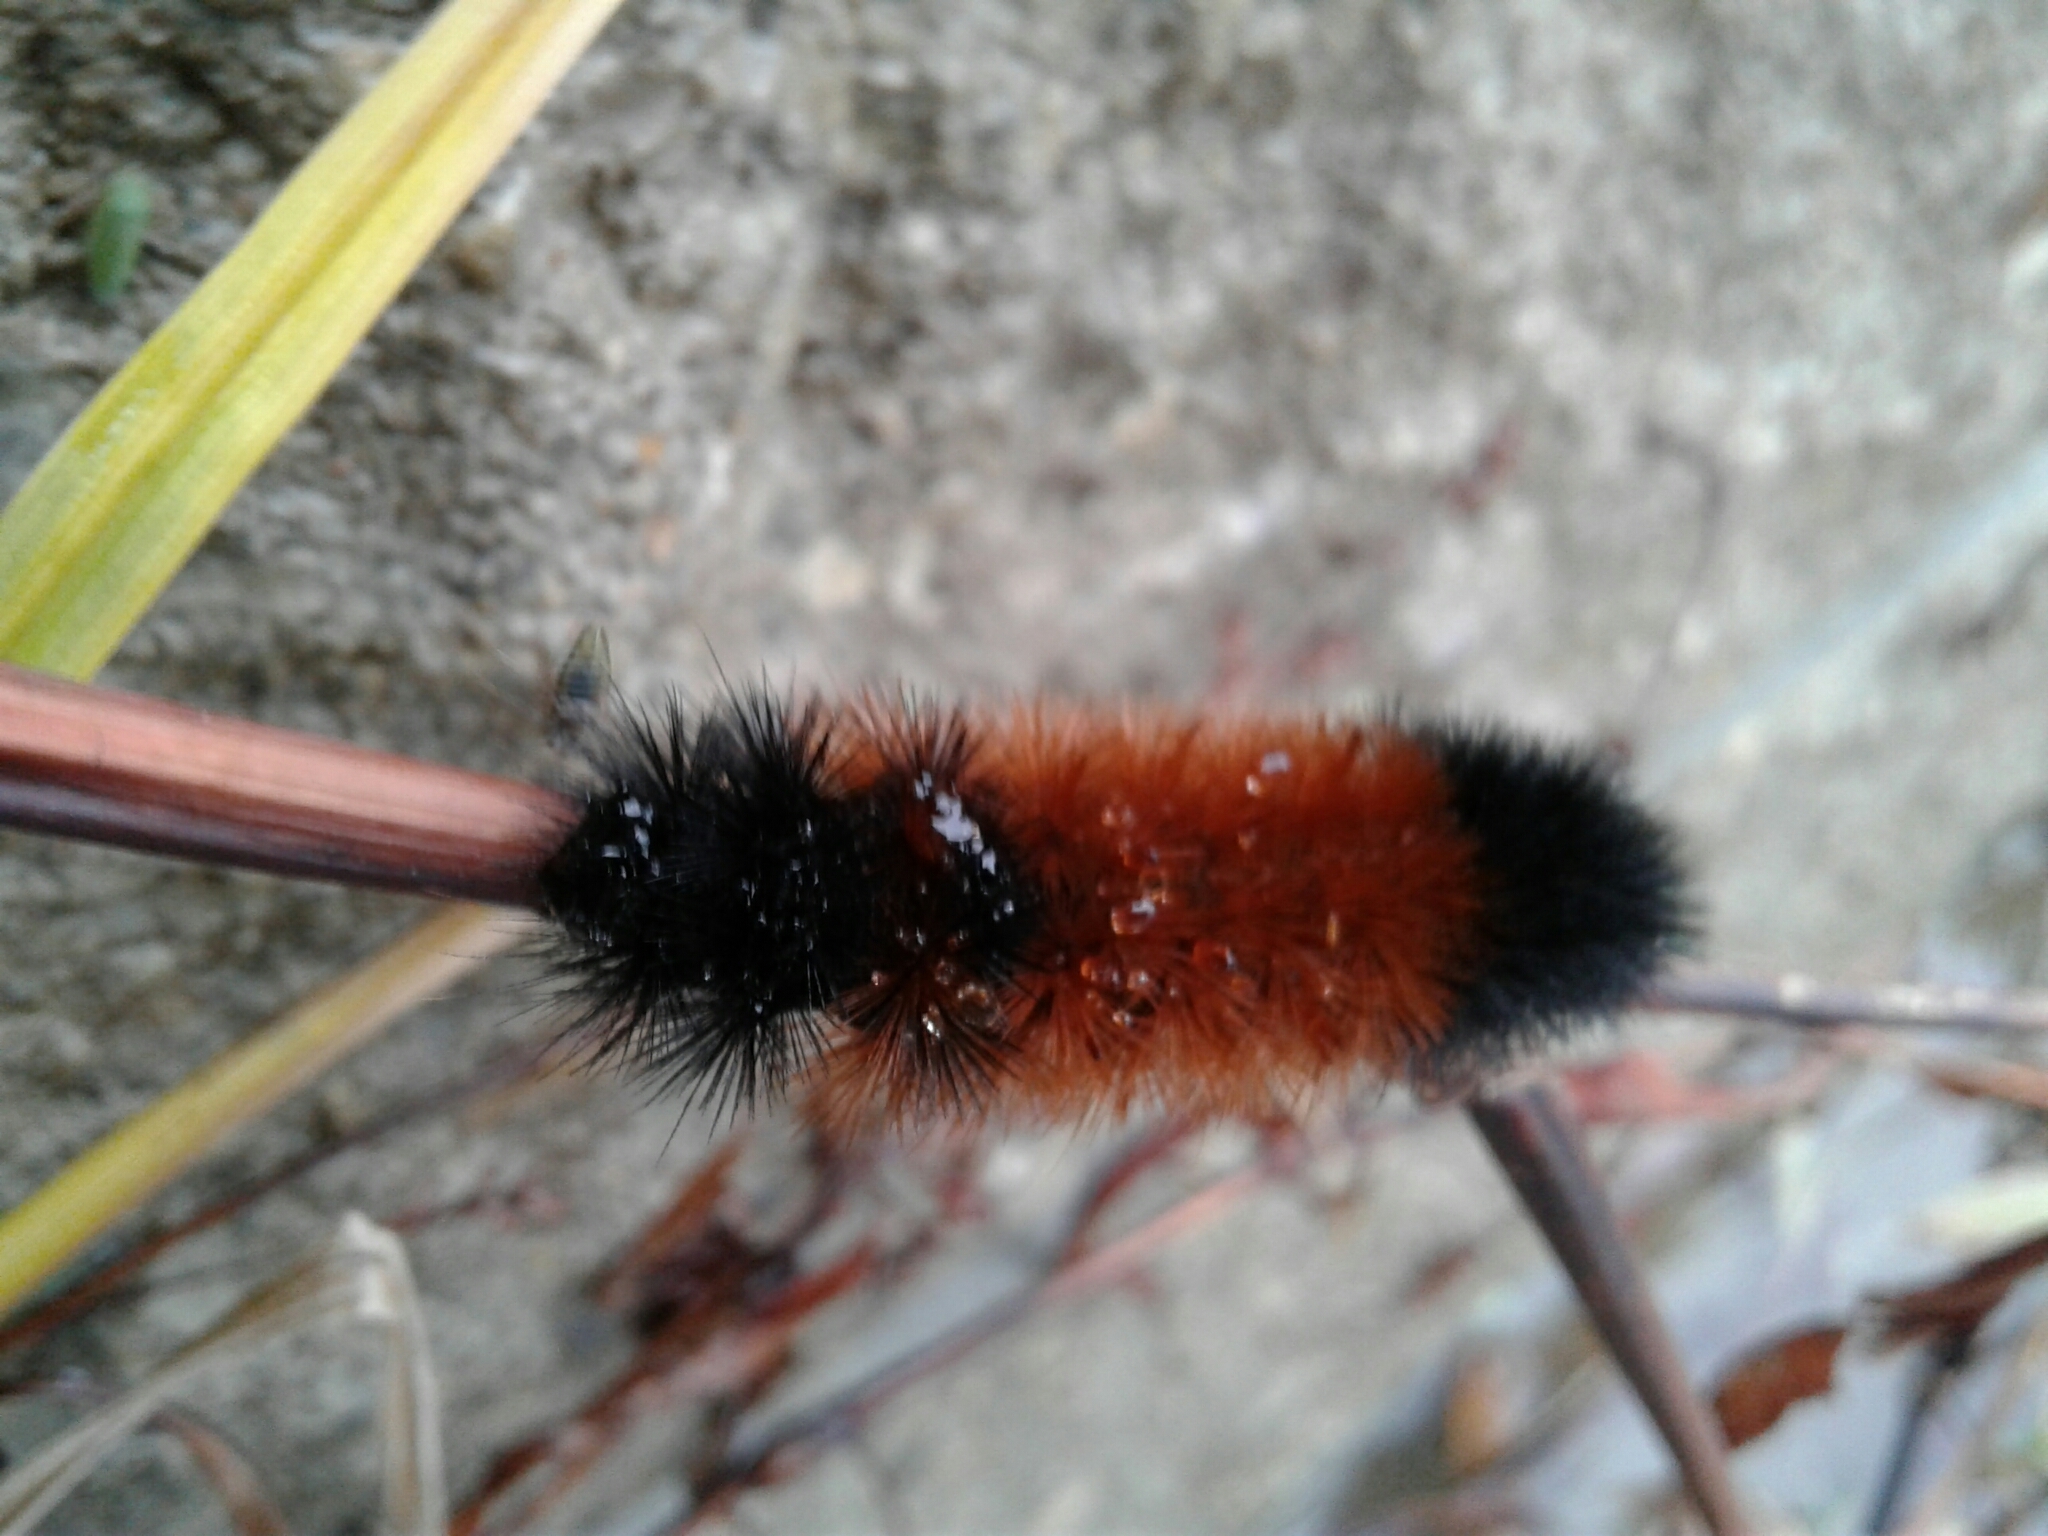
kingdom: Animalia
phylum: Arthropoda
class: Insecta
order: Lepidoptera
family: Erebidae
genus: Pyrrharctia
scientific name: Pyrrharctia isabella
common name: Isabella tiger moth
